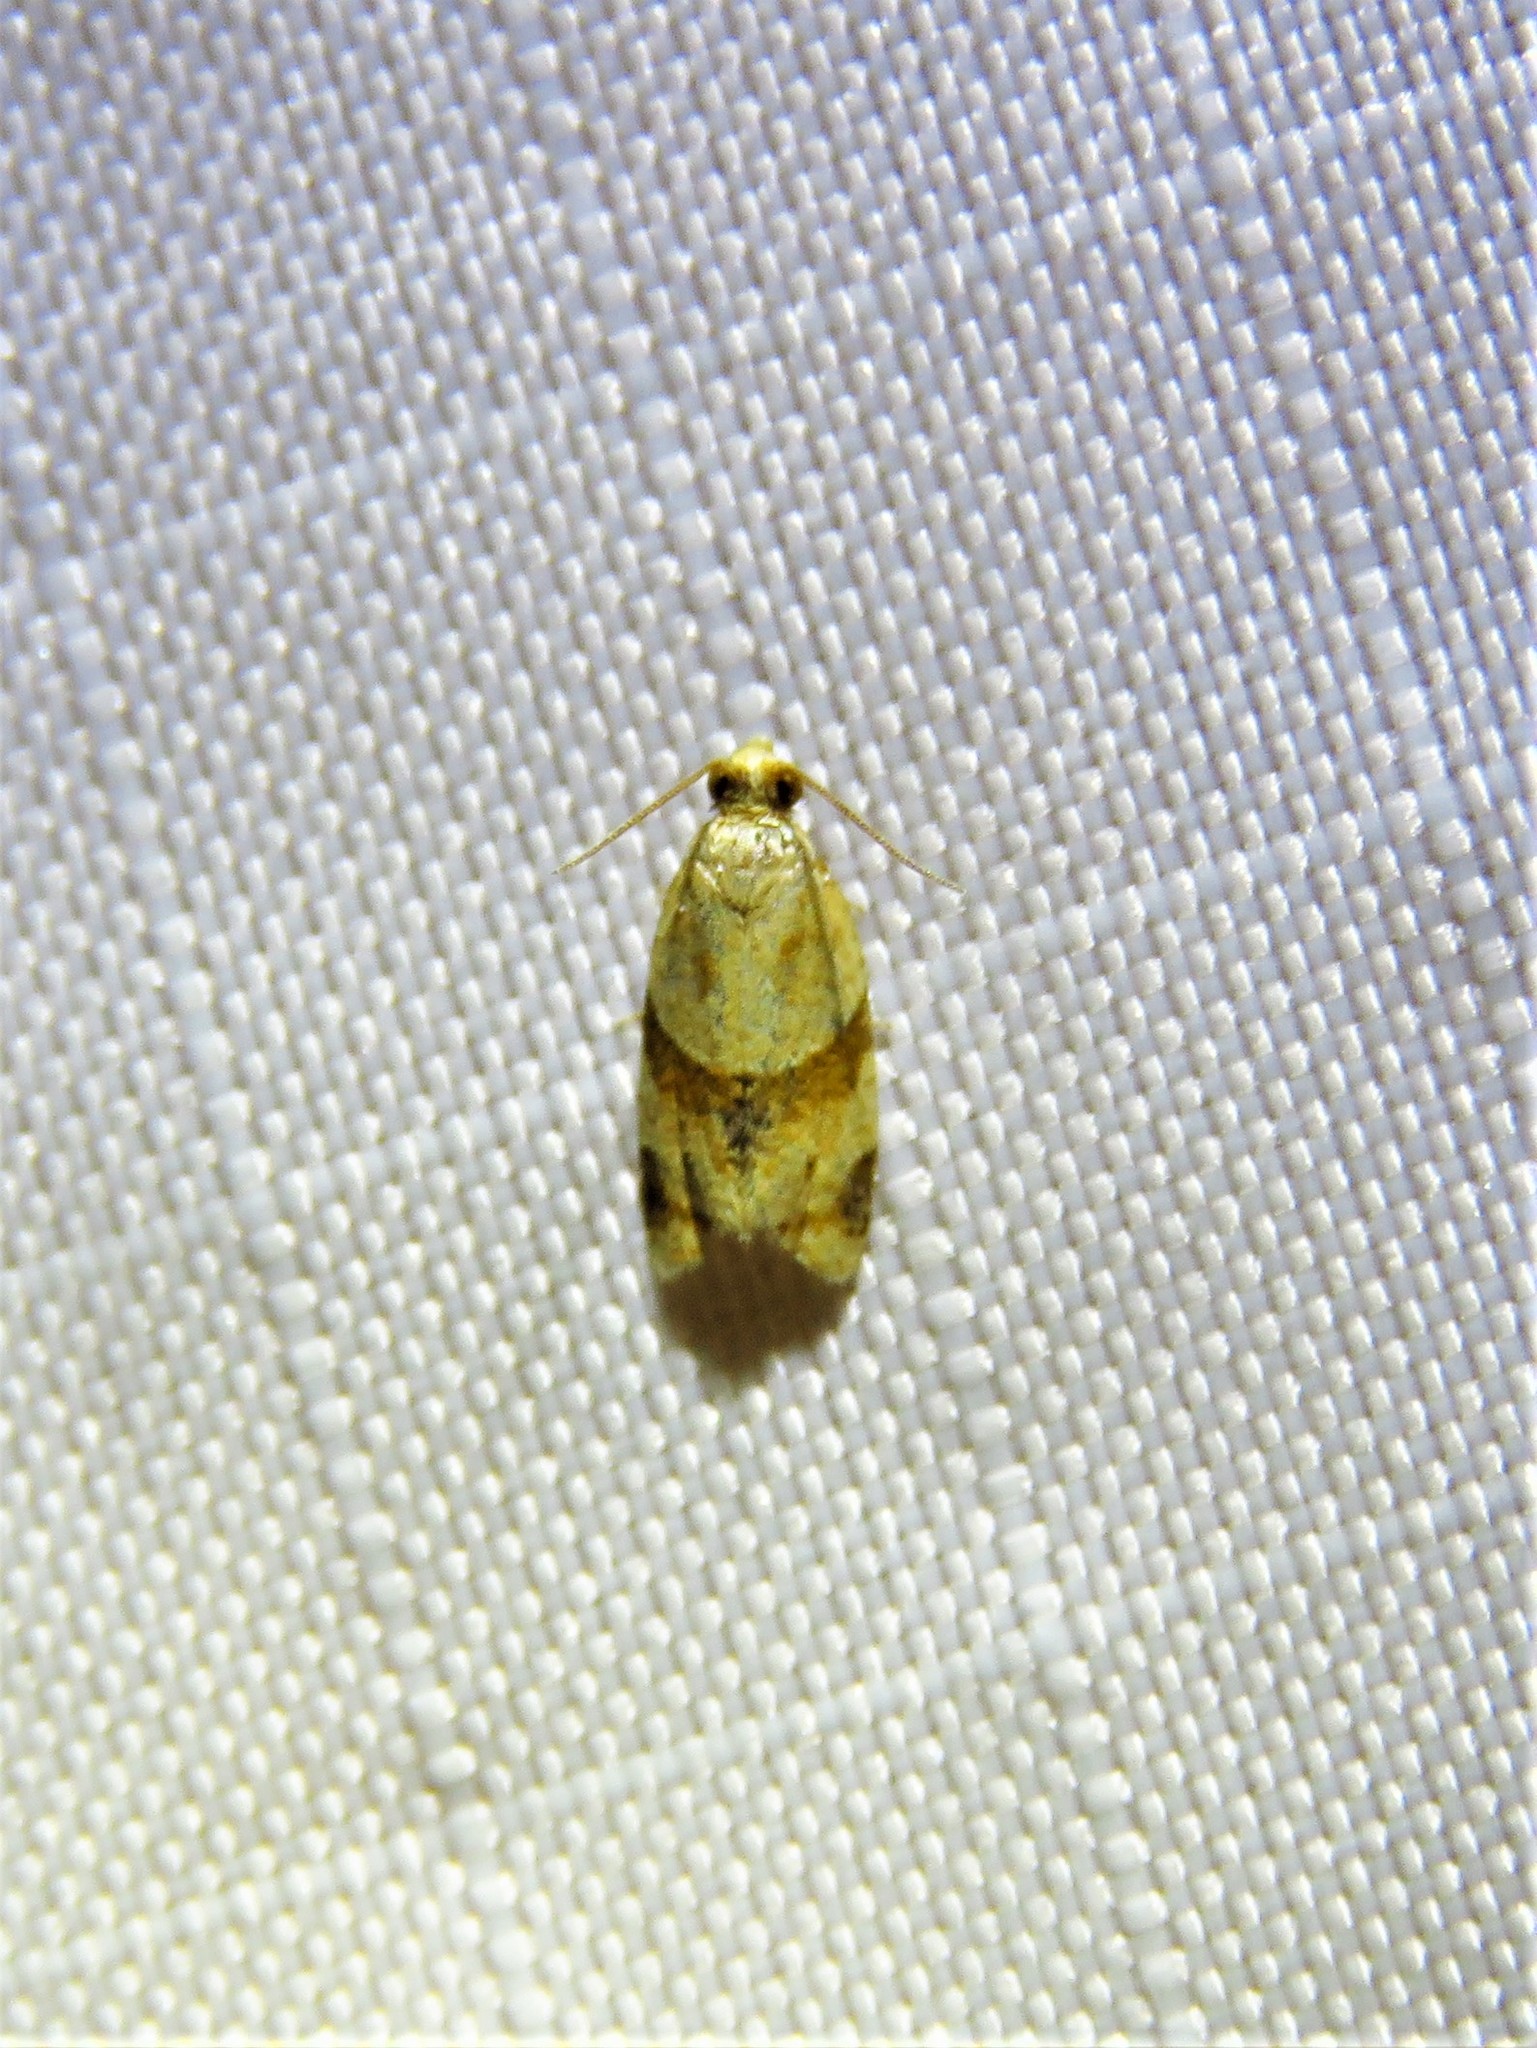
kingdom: Animalia
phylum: Arthropoda
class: Insecta
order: Lepidoptera
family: Tortricidae
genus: Clepsis
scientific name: Clepsis peritana
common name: Garden tortrix
